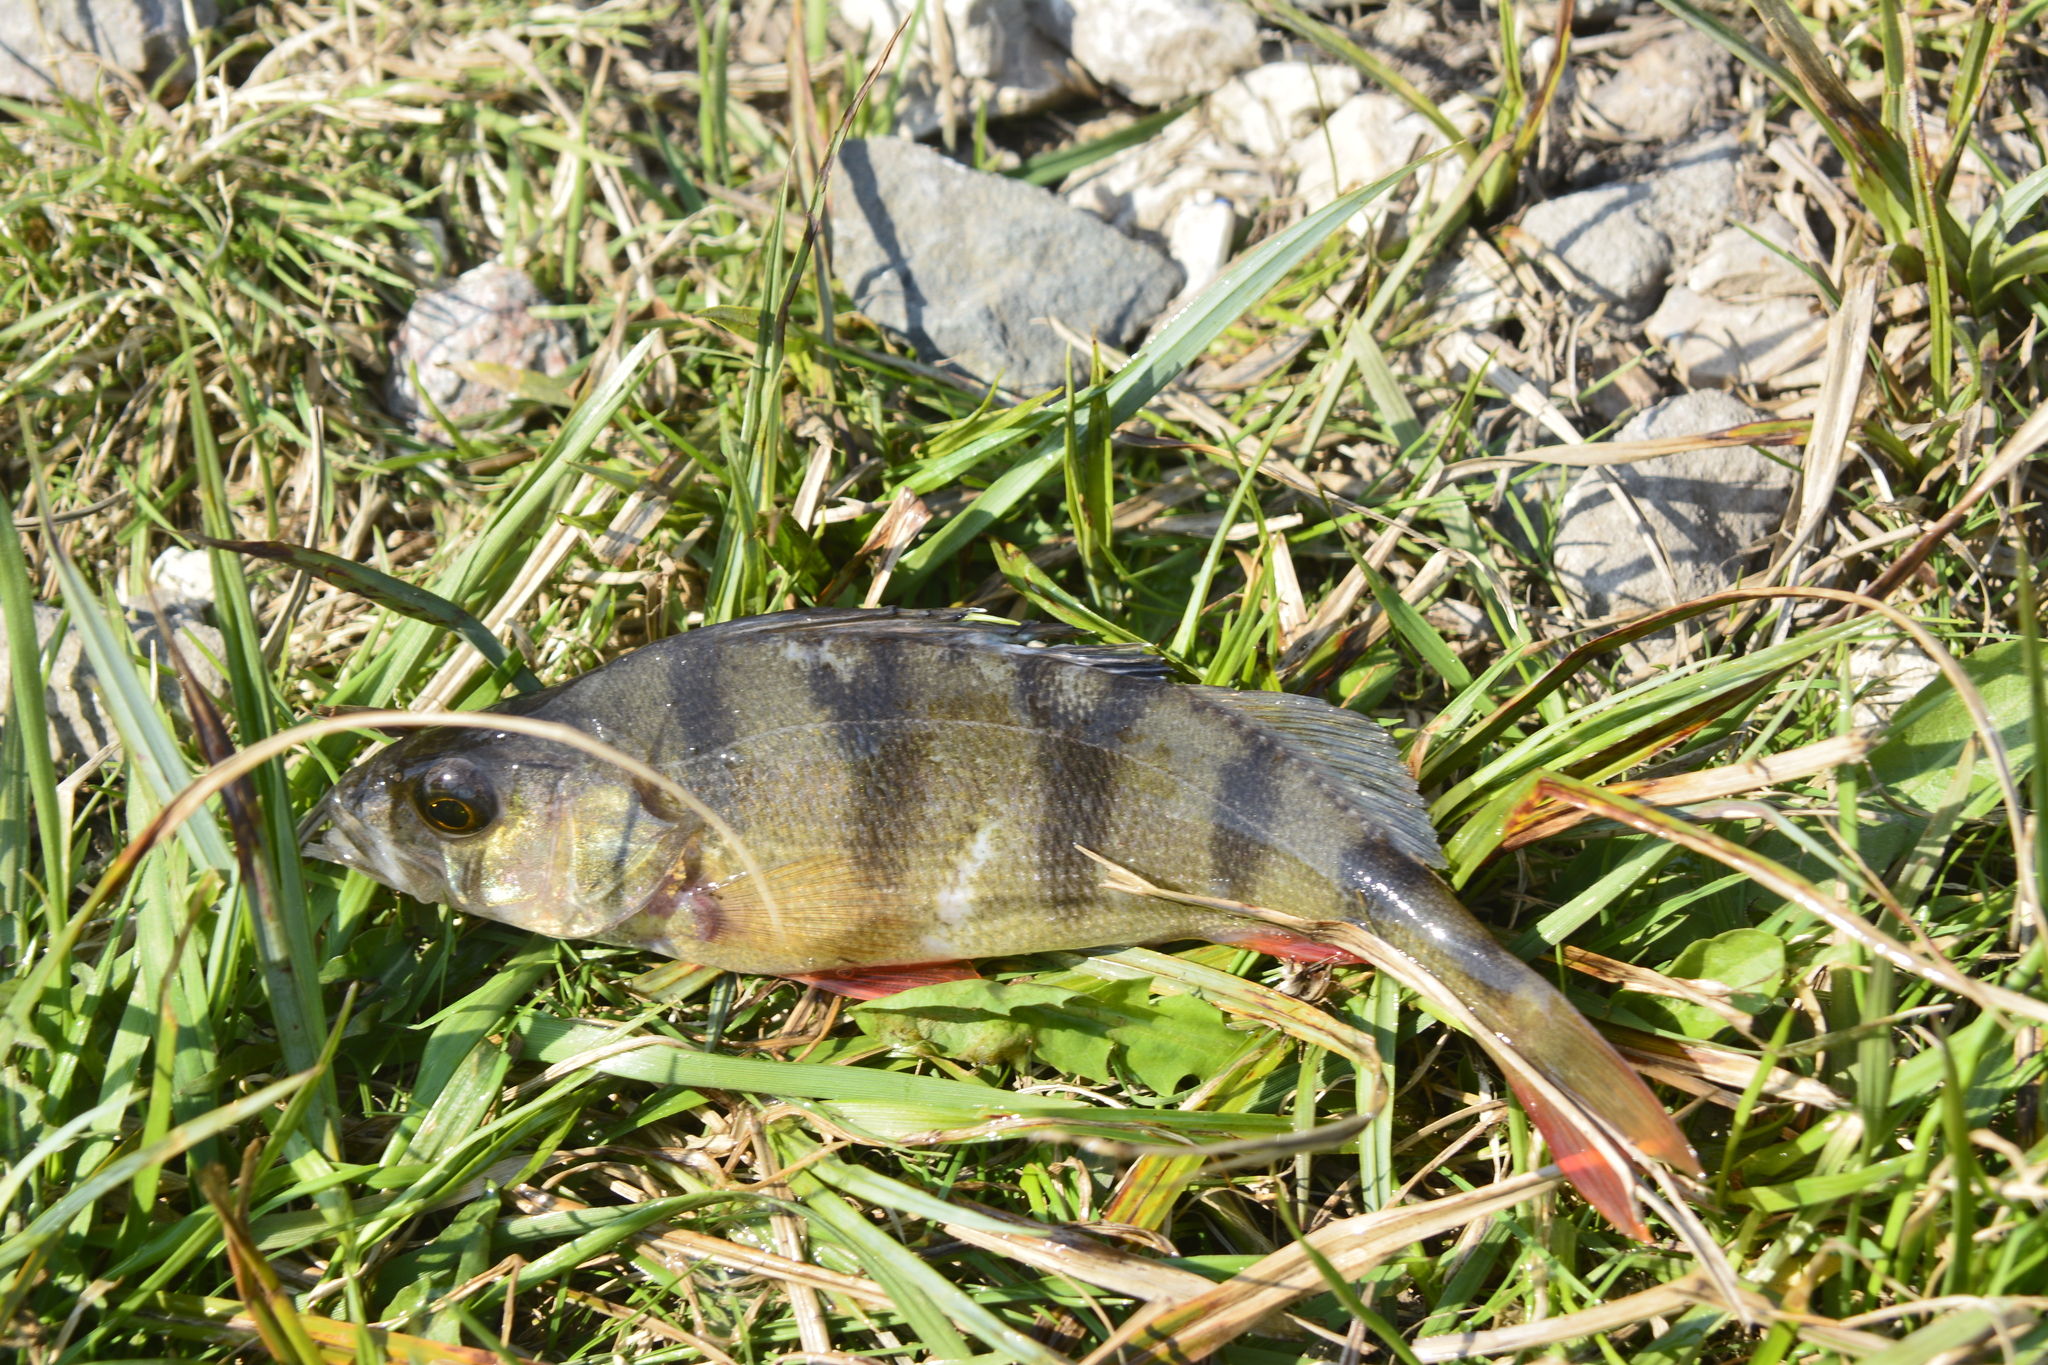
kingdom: Animalia
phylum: Chordata
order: Perciformes
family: Percidae
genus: Perca
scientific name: Perca fluviatilis
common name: Perch
